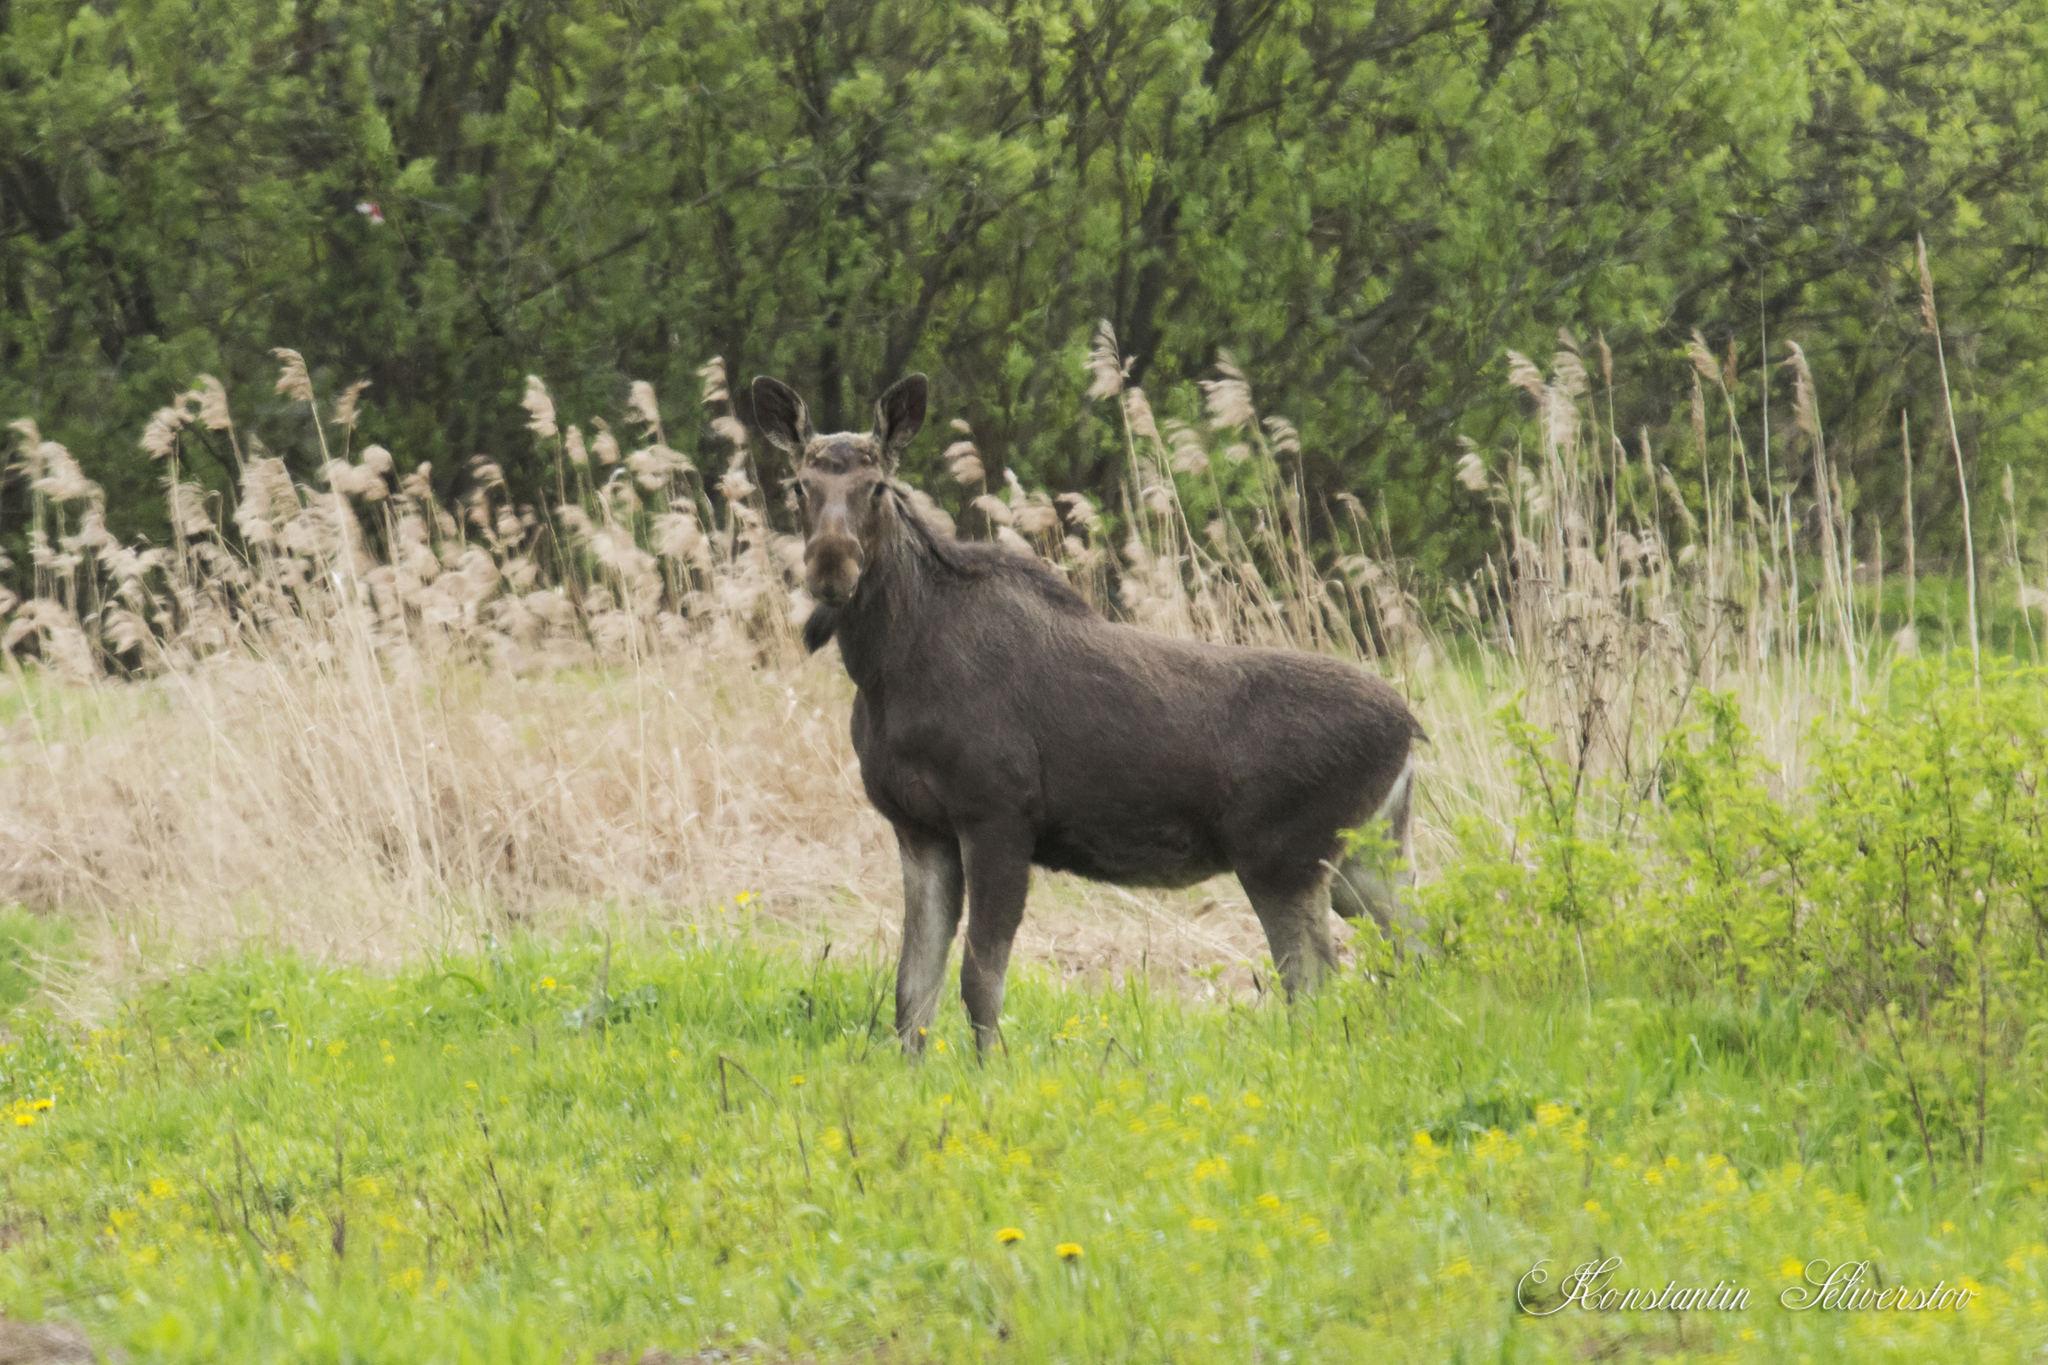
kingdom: Animalia
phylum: Chordata
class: Mammalia
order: Artiodactyla
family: Cervidae
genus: Alces
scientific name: Alces alces
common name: Moose
